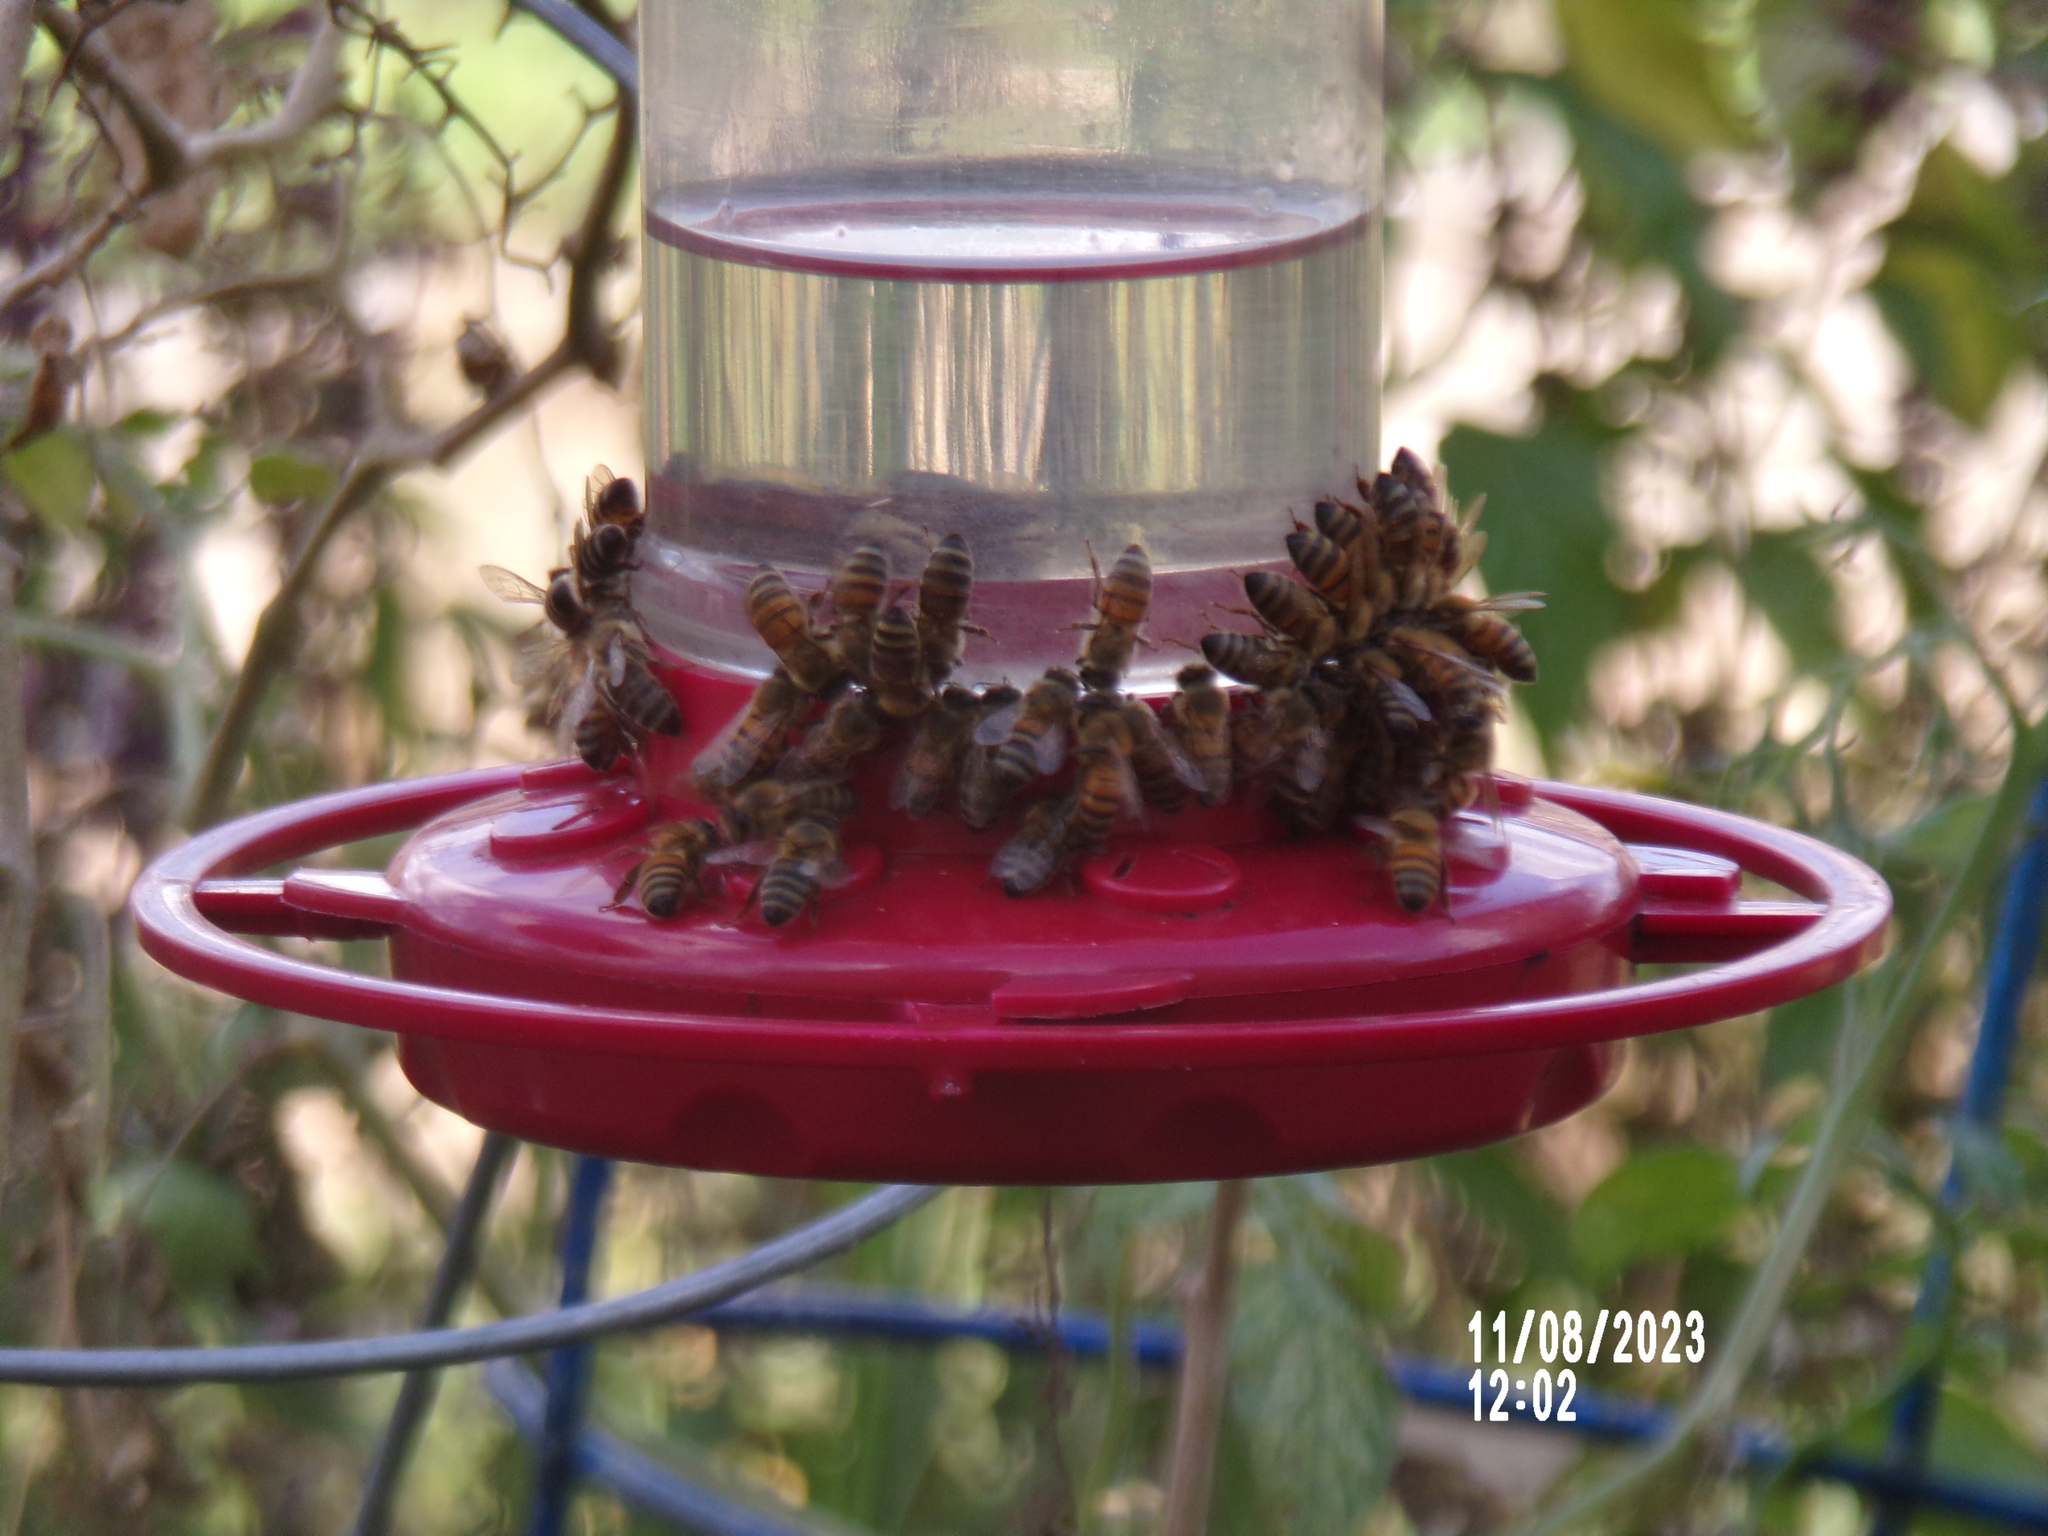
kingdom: Animalia
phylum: Arthropoda
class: Insecta
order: Hymenoptera
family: Apidae
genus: Apis
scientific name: Apis mellifera
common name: Honey bee
